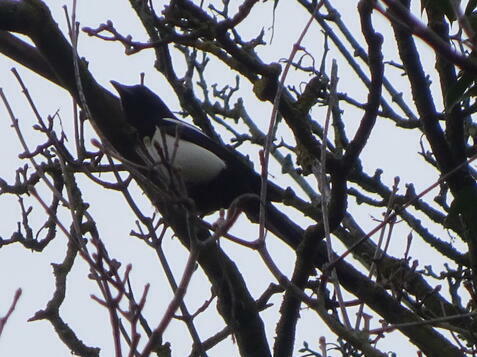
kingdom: Animalia
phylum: Chordata
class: Aves
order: Passeriformes
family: Corvidae
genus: Pica
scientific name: Pica pica
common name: Eurasian magpie
